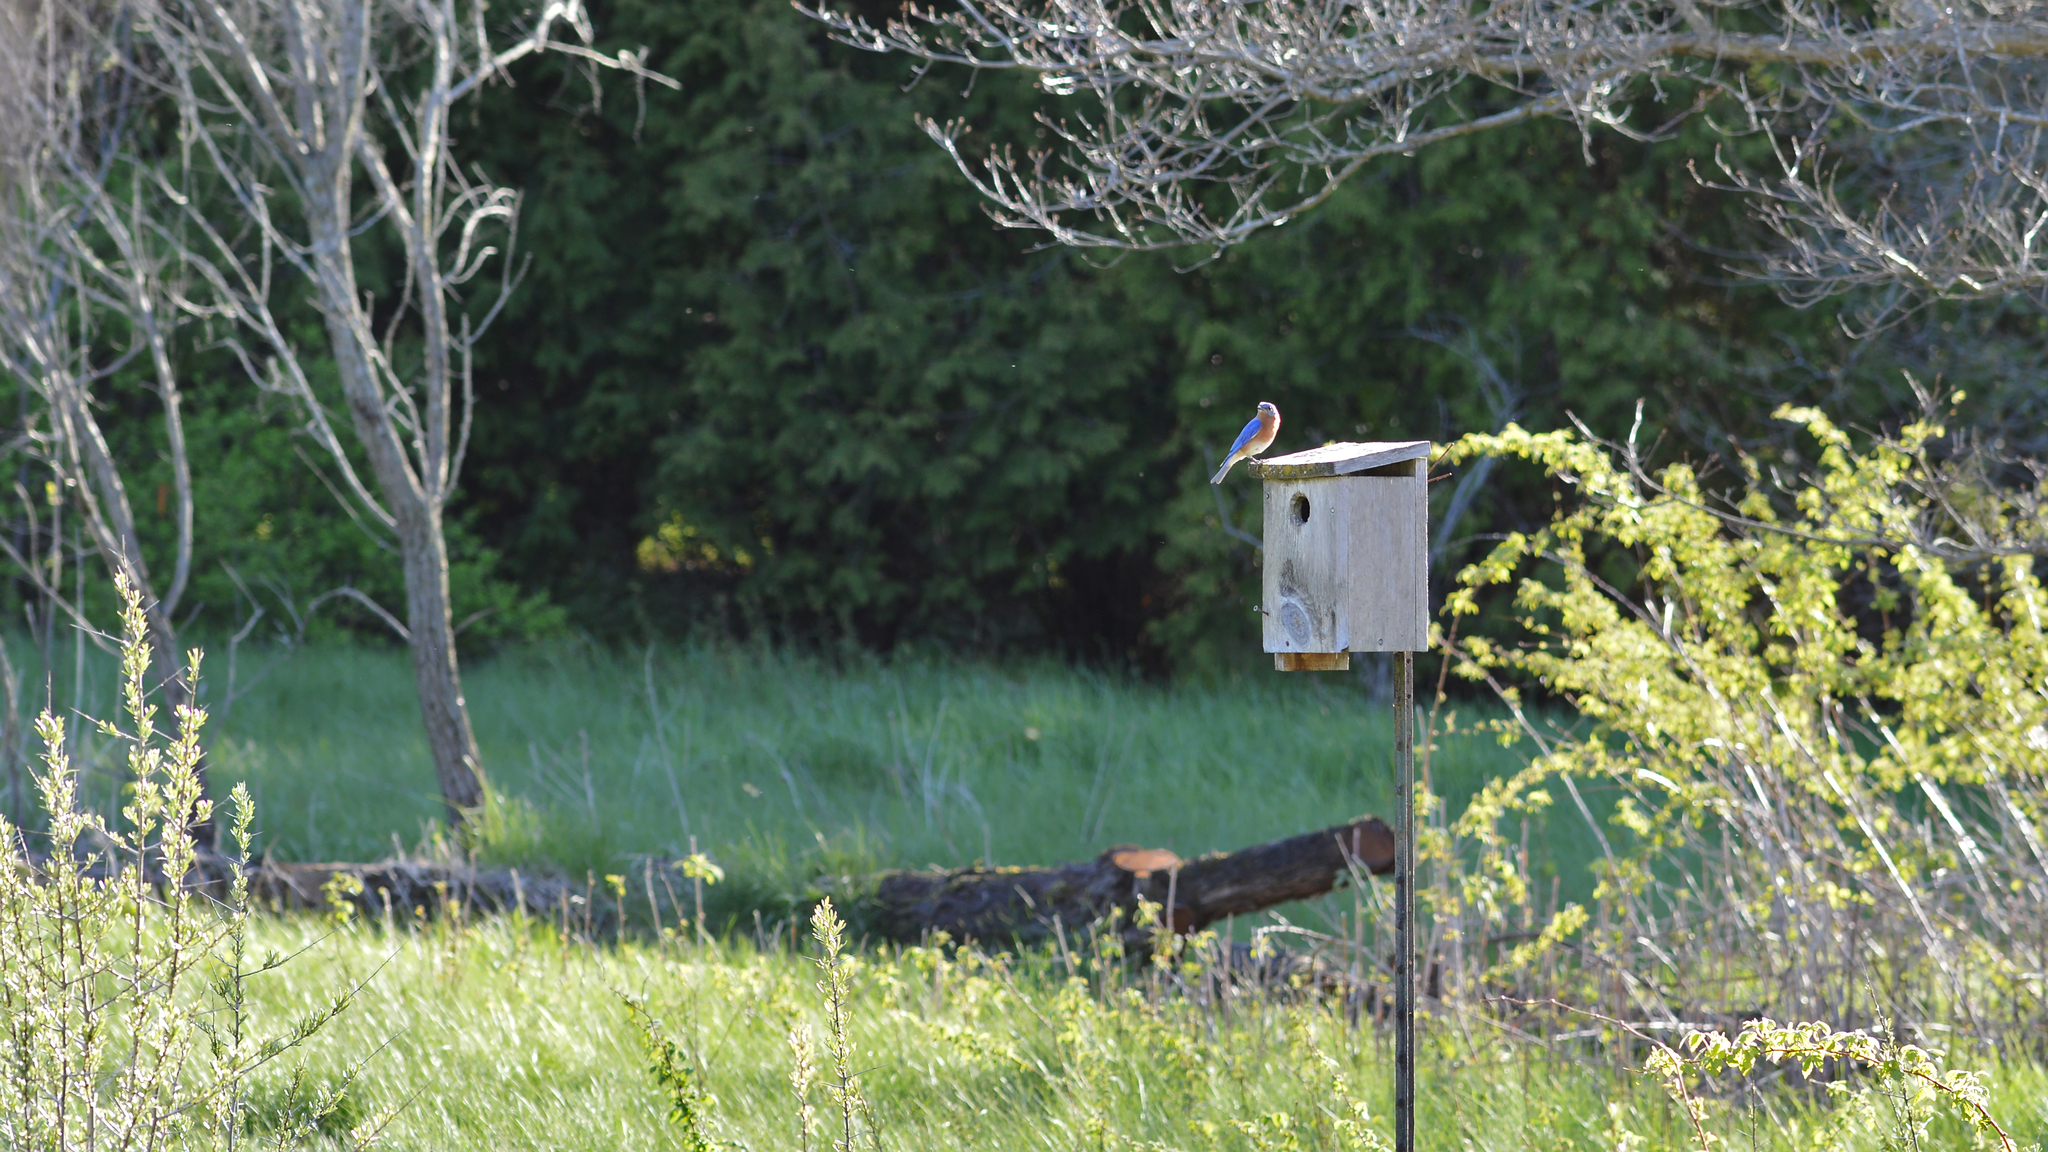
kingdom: Animalia
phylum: Chordata
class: Aves
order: Passeriformes
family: Turdidae
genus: Sialia
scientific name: Sialia sialis
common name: Eastern bluebird
